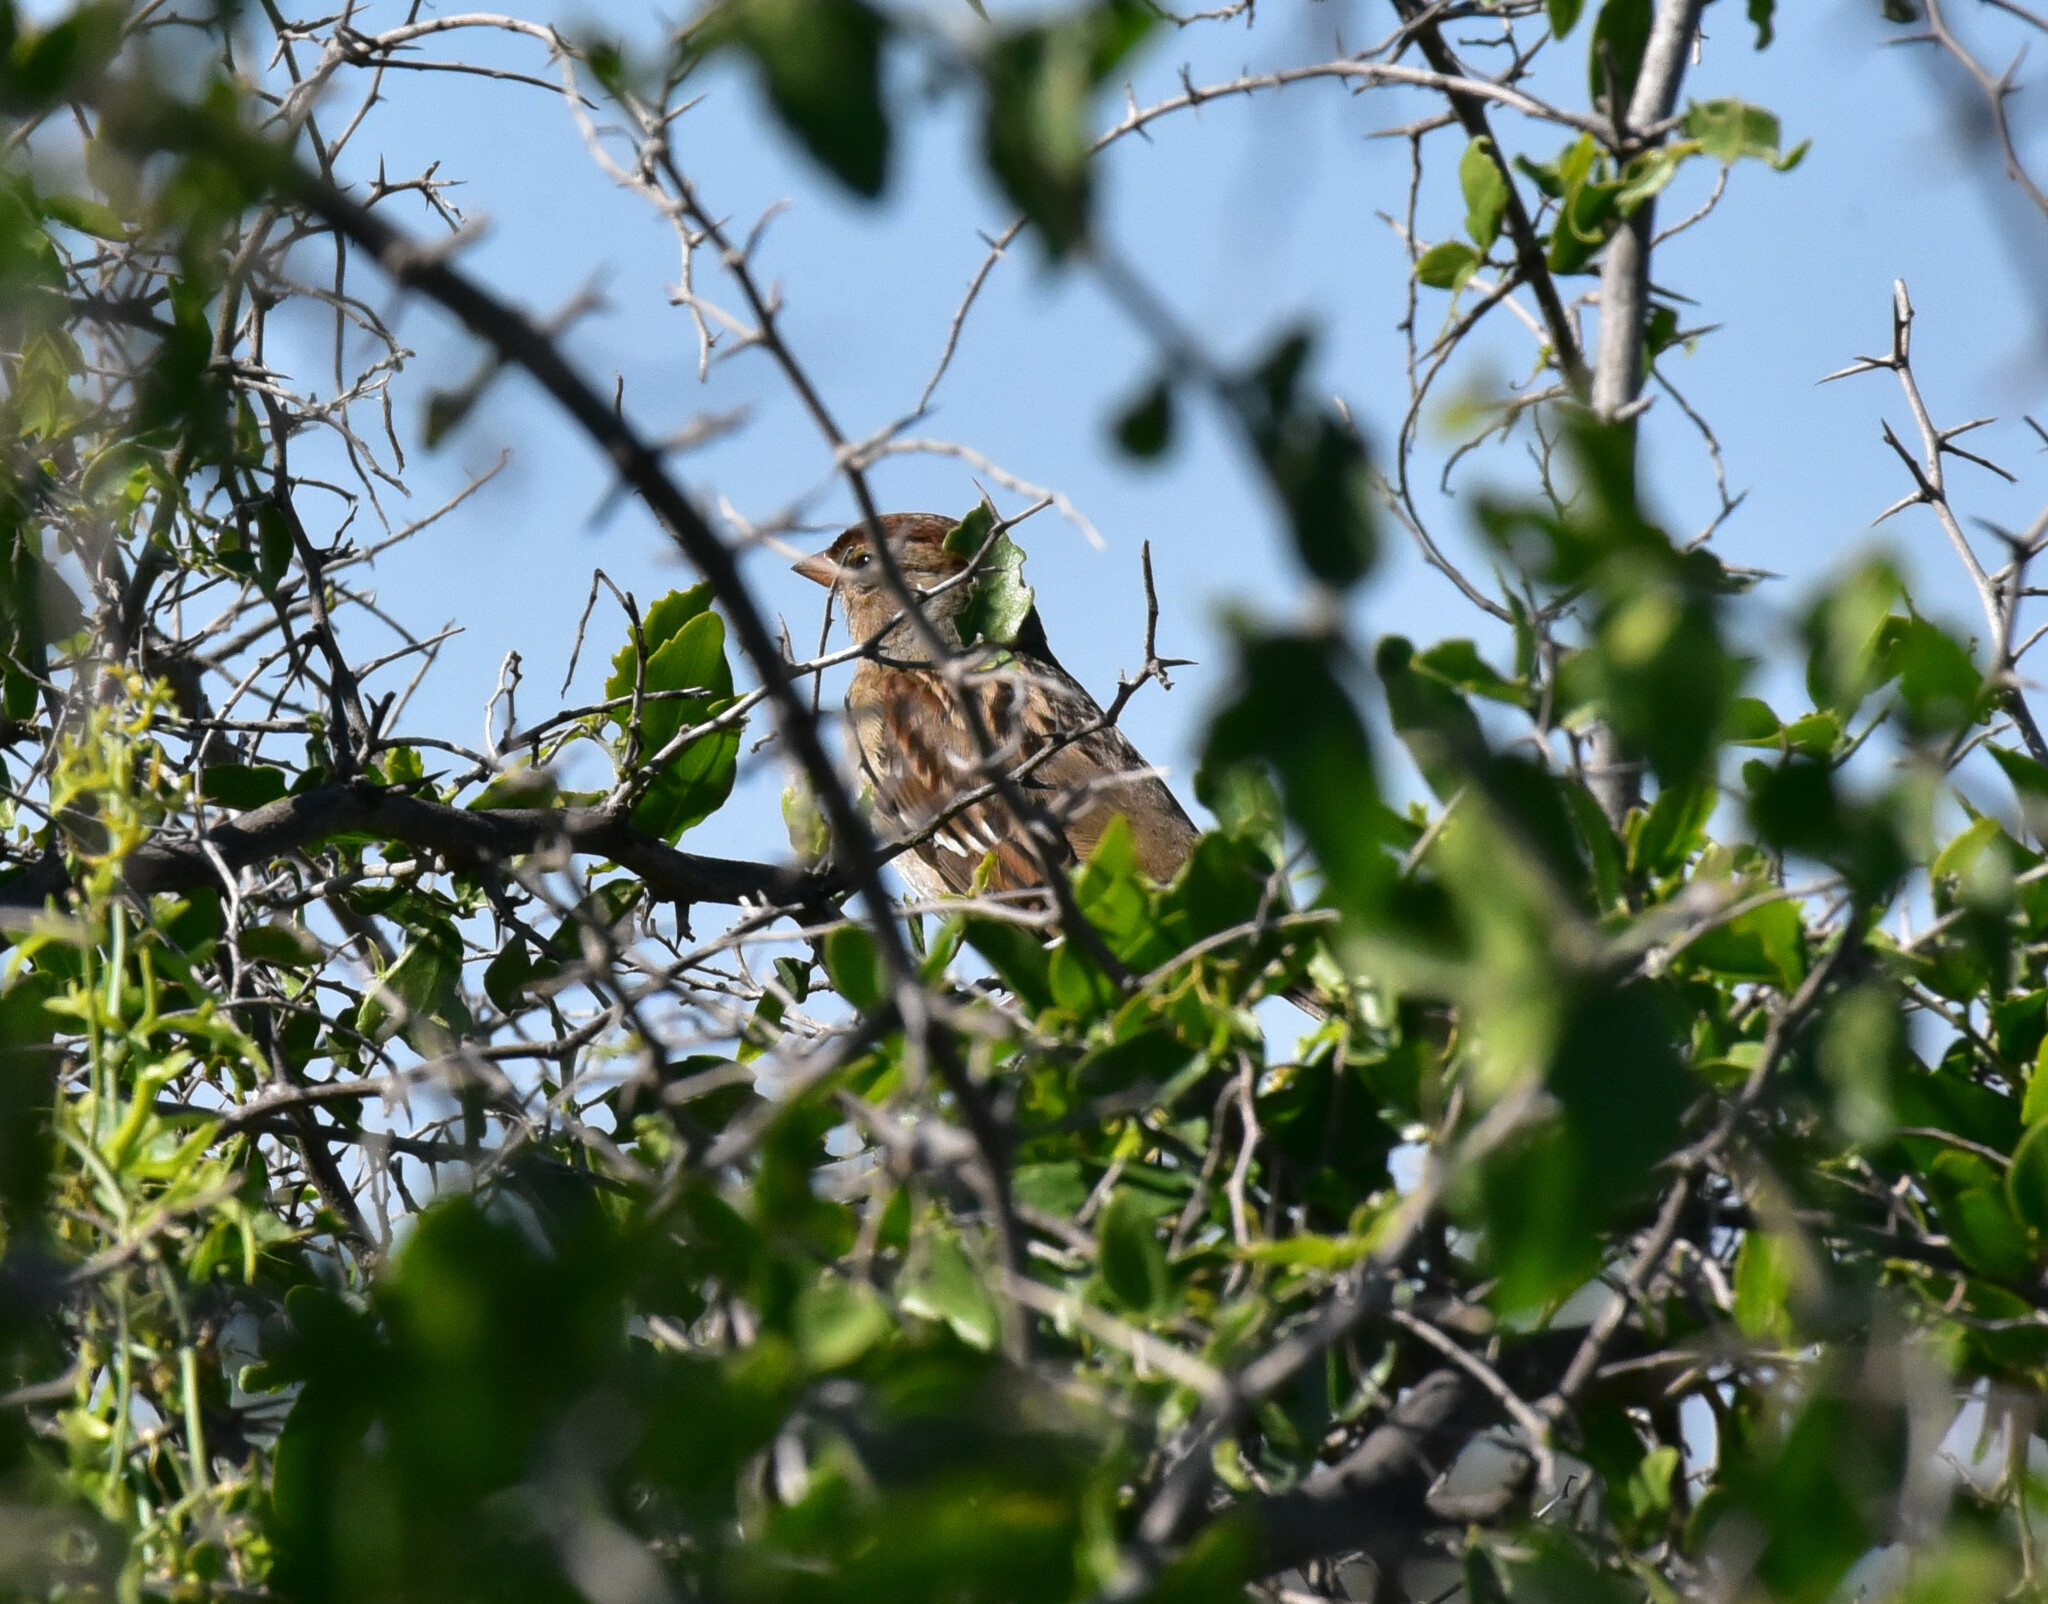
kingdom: Animalia
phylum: Chordata
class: Aves
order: Passeriformes
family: Passerellidae
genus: Zonotrichia
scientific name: Zonotrichia leucophrys
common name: White-crowned sparrow
